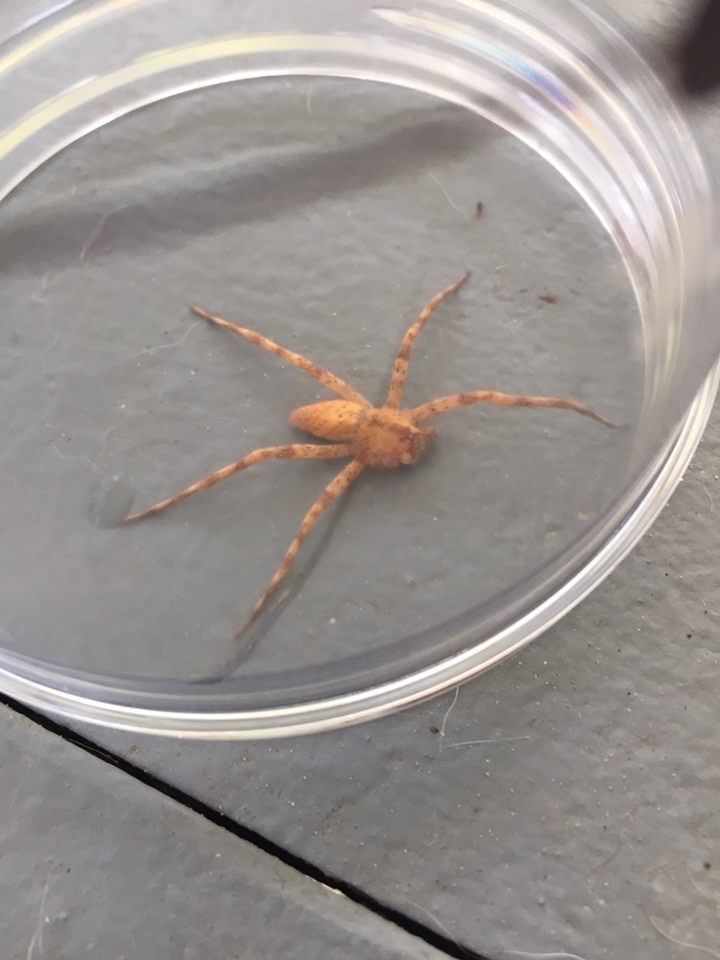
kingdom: Animalia
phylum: Arthropoda
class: Arachnida
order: Araneae
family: Pisauridae
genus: Pisaurina
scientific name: Pisaurina mira
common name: American nursery web spider
